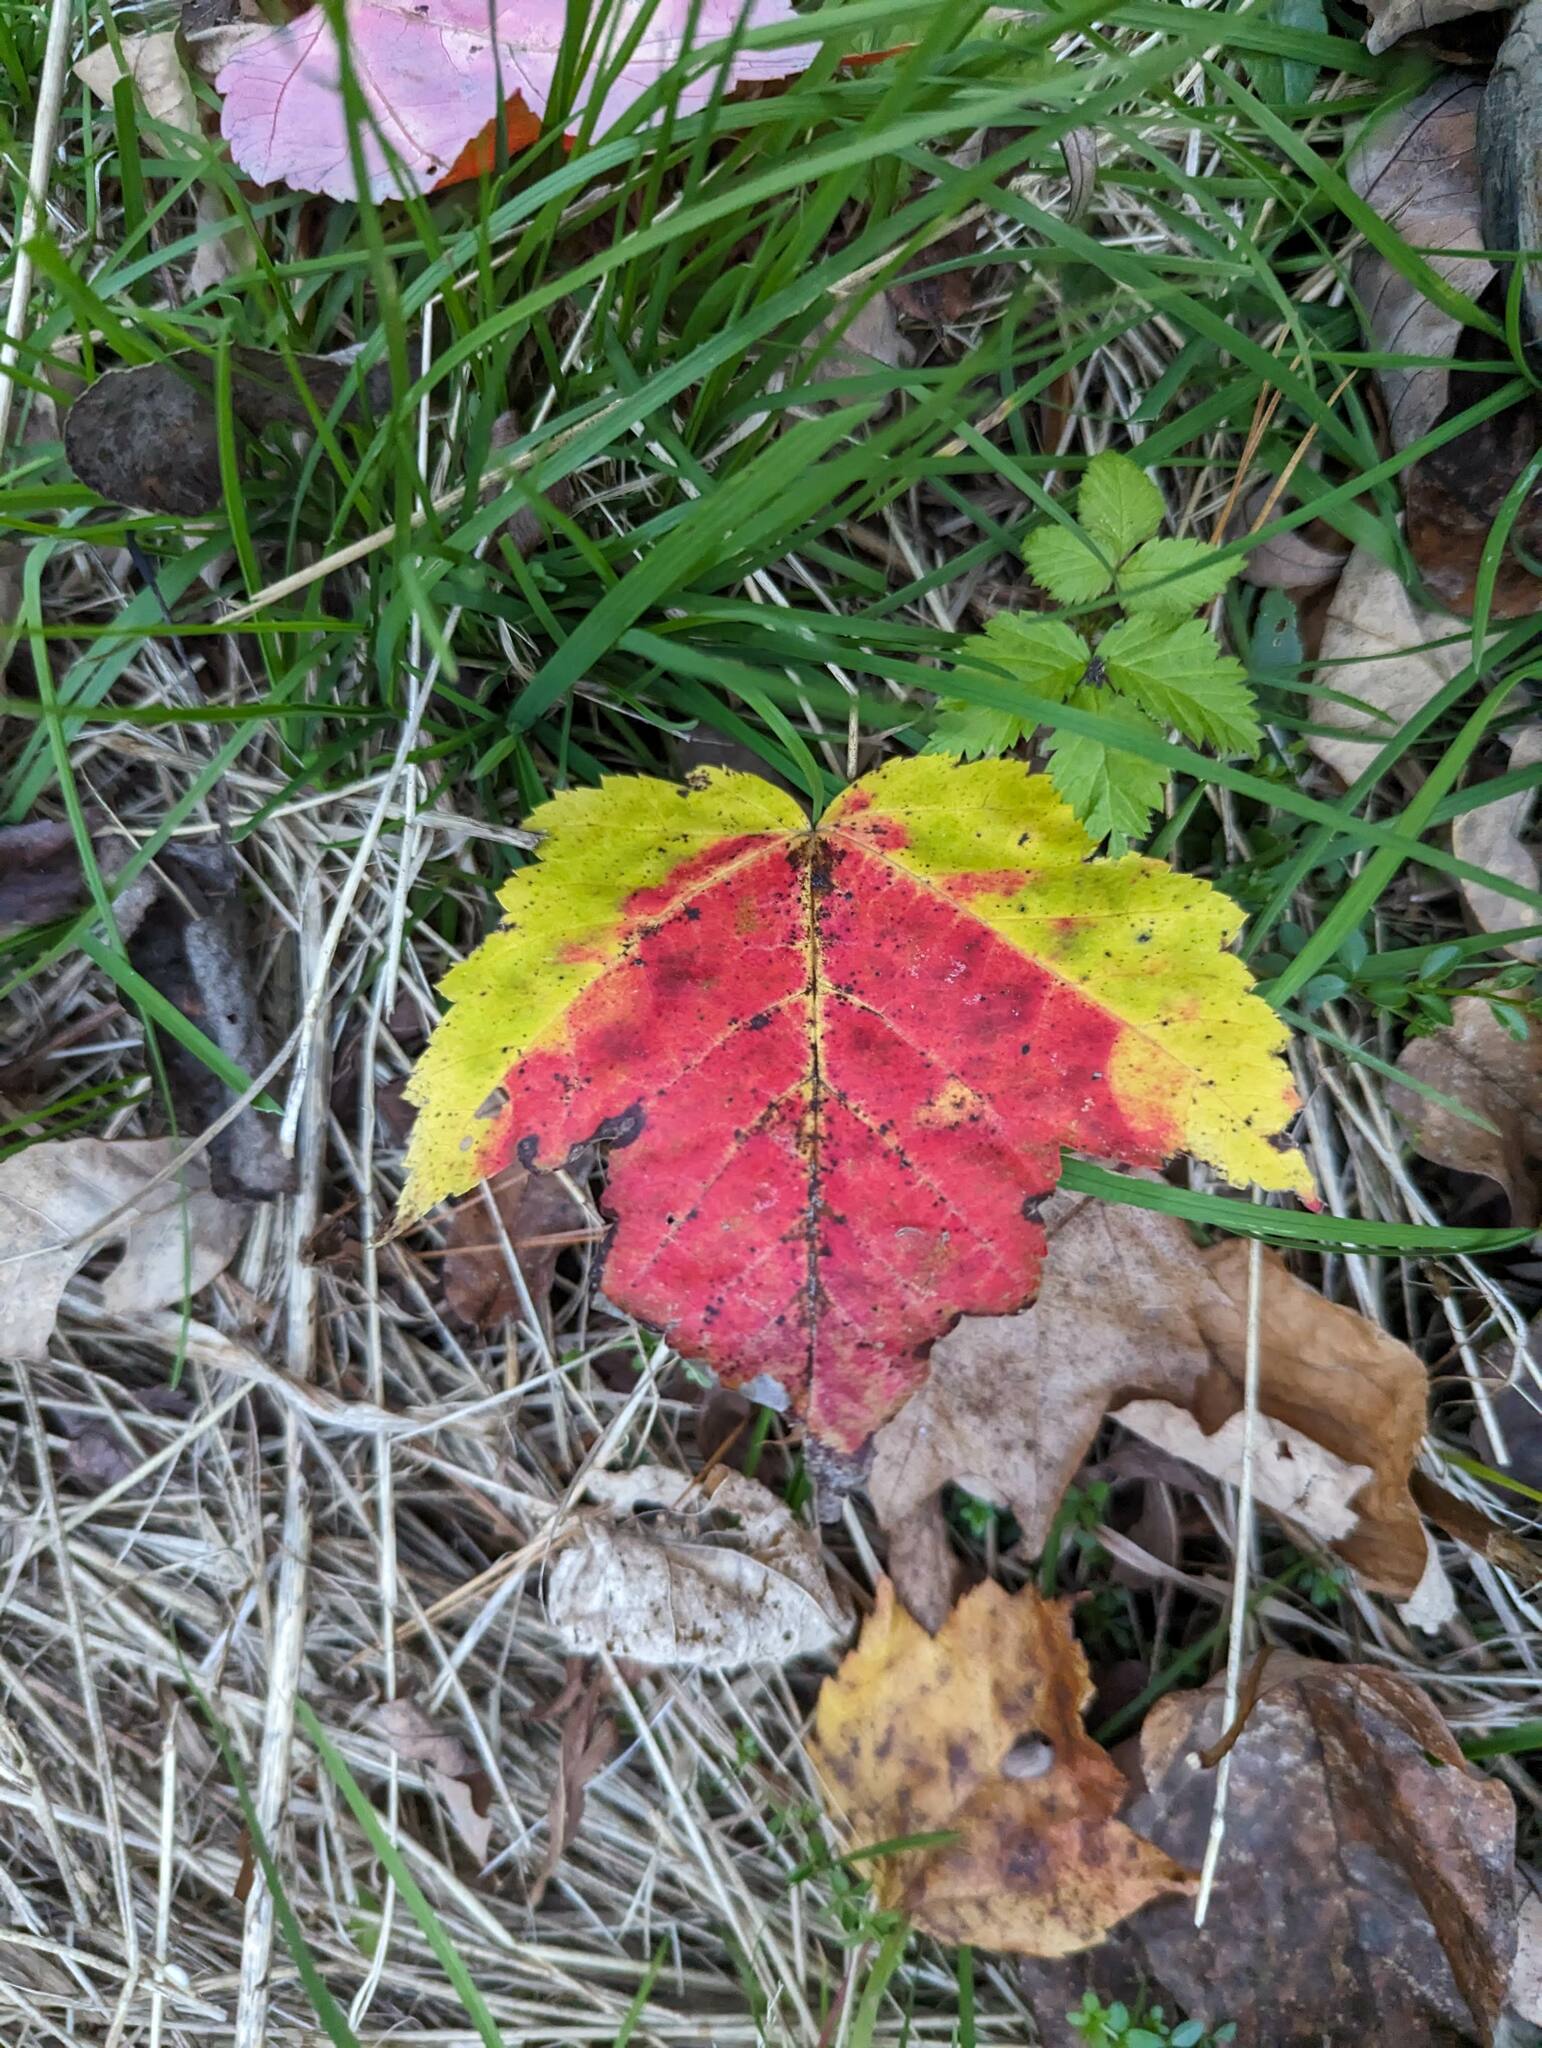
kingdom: Plantae
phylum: Tracheophyta
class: Magnoliopsida
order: Sapindales
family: Sapindaceae
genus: Acer
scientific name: Acer rubrum
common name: Red maple
